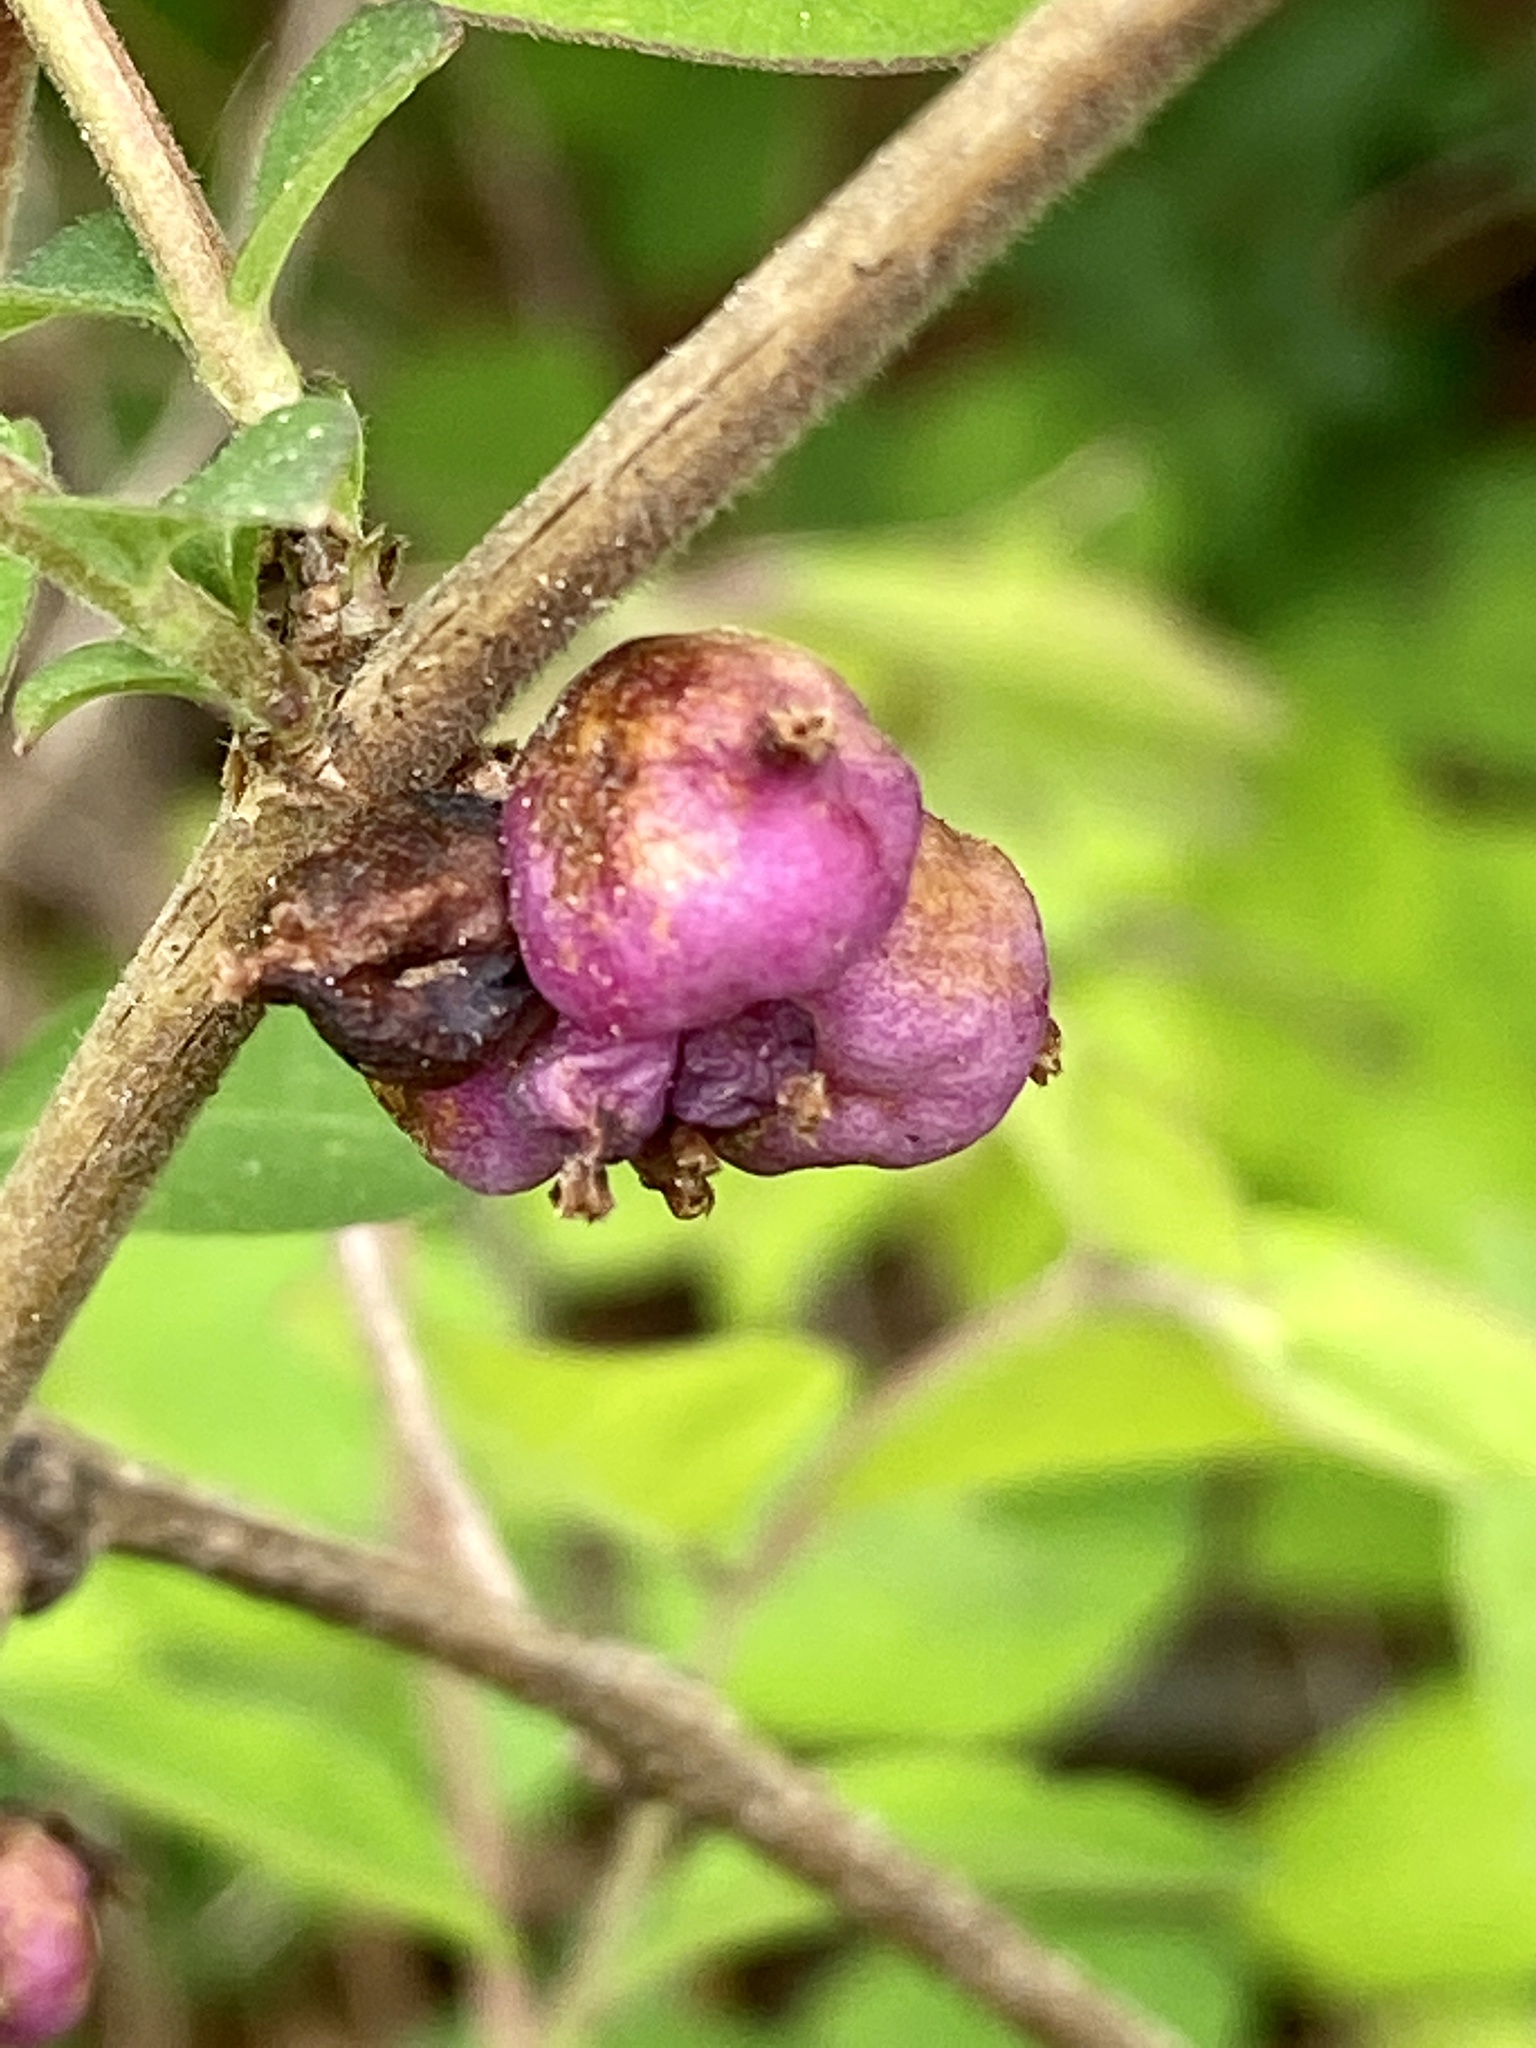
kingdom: Plantae
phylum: Tracheophyta
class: Magnoliopsida
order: Dipsacales
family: Caprifoliaceae
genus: Symphoricarpos
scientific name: Symphoricarpos orbiculatus
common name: Coralberry
